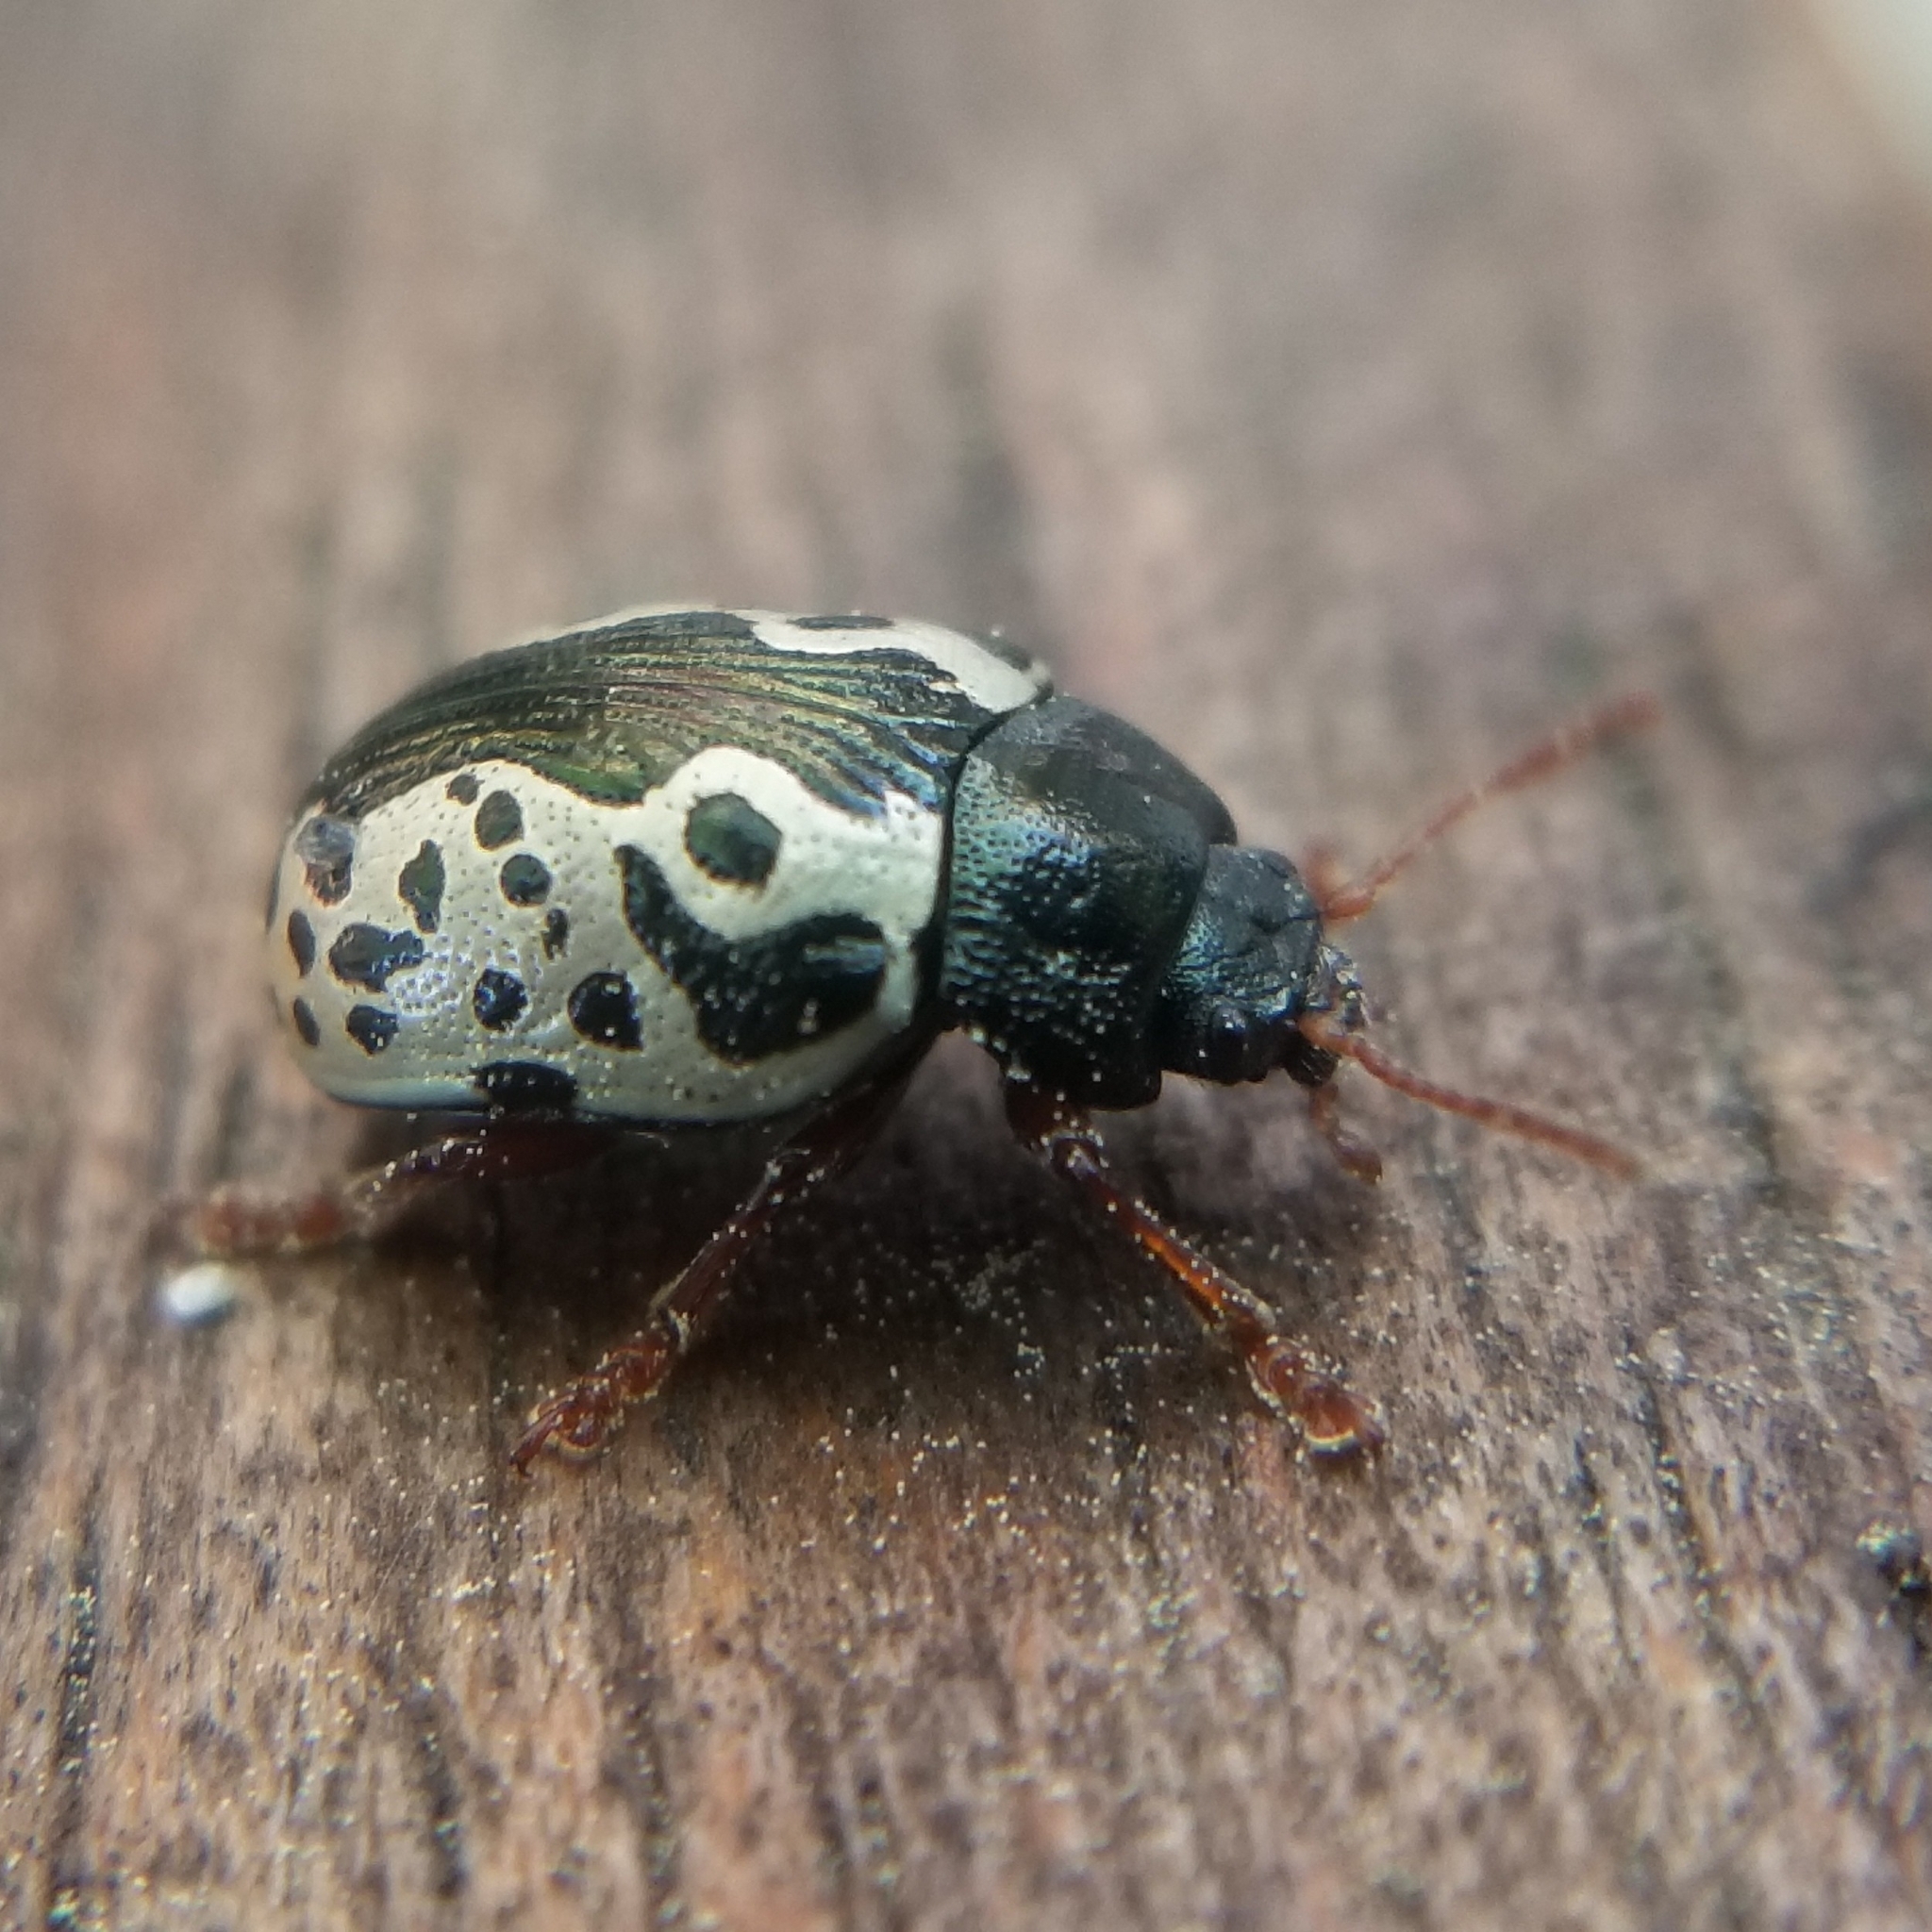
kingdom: Animalia
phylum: Arthropoda
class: Insecta
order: Coleoptera
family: Chrysomelidae
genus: Calligrapha
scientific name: Calligrapha confluens
